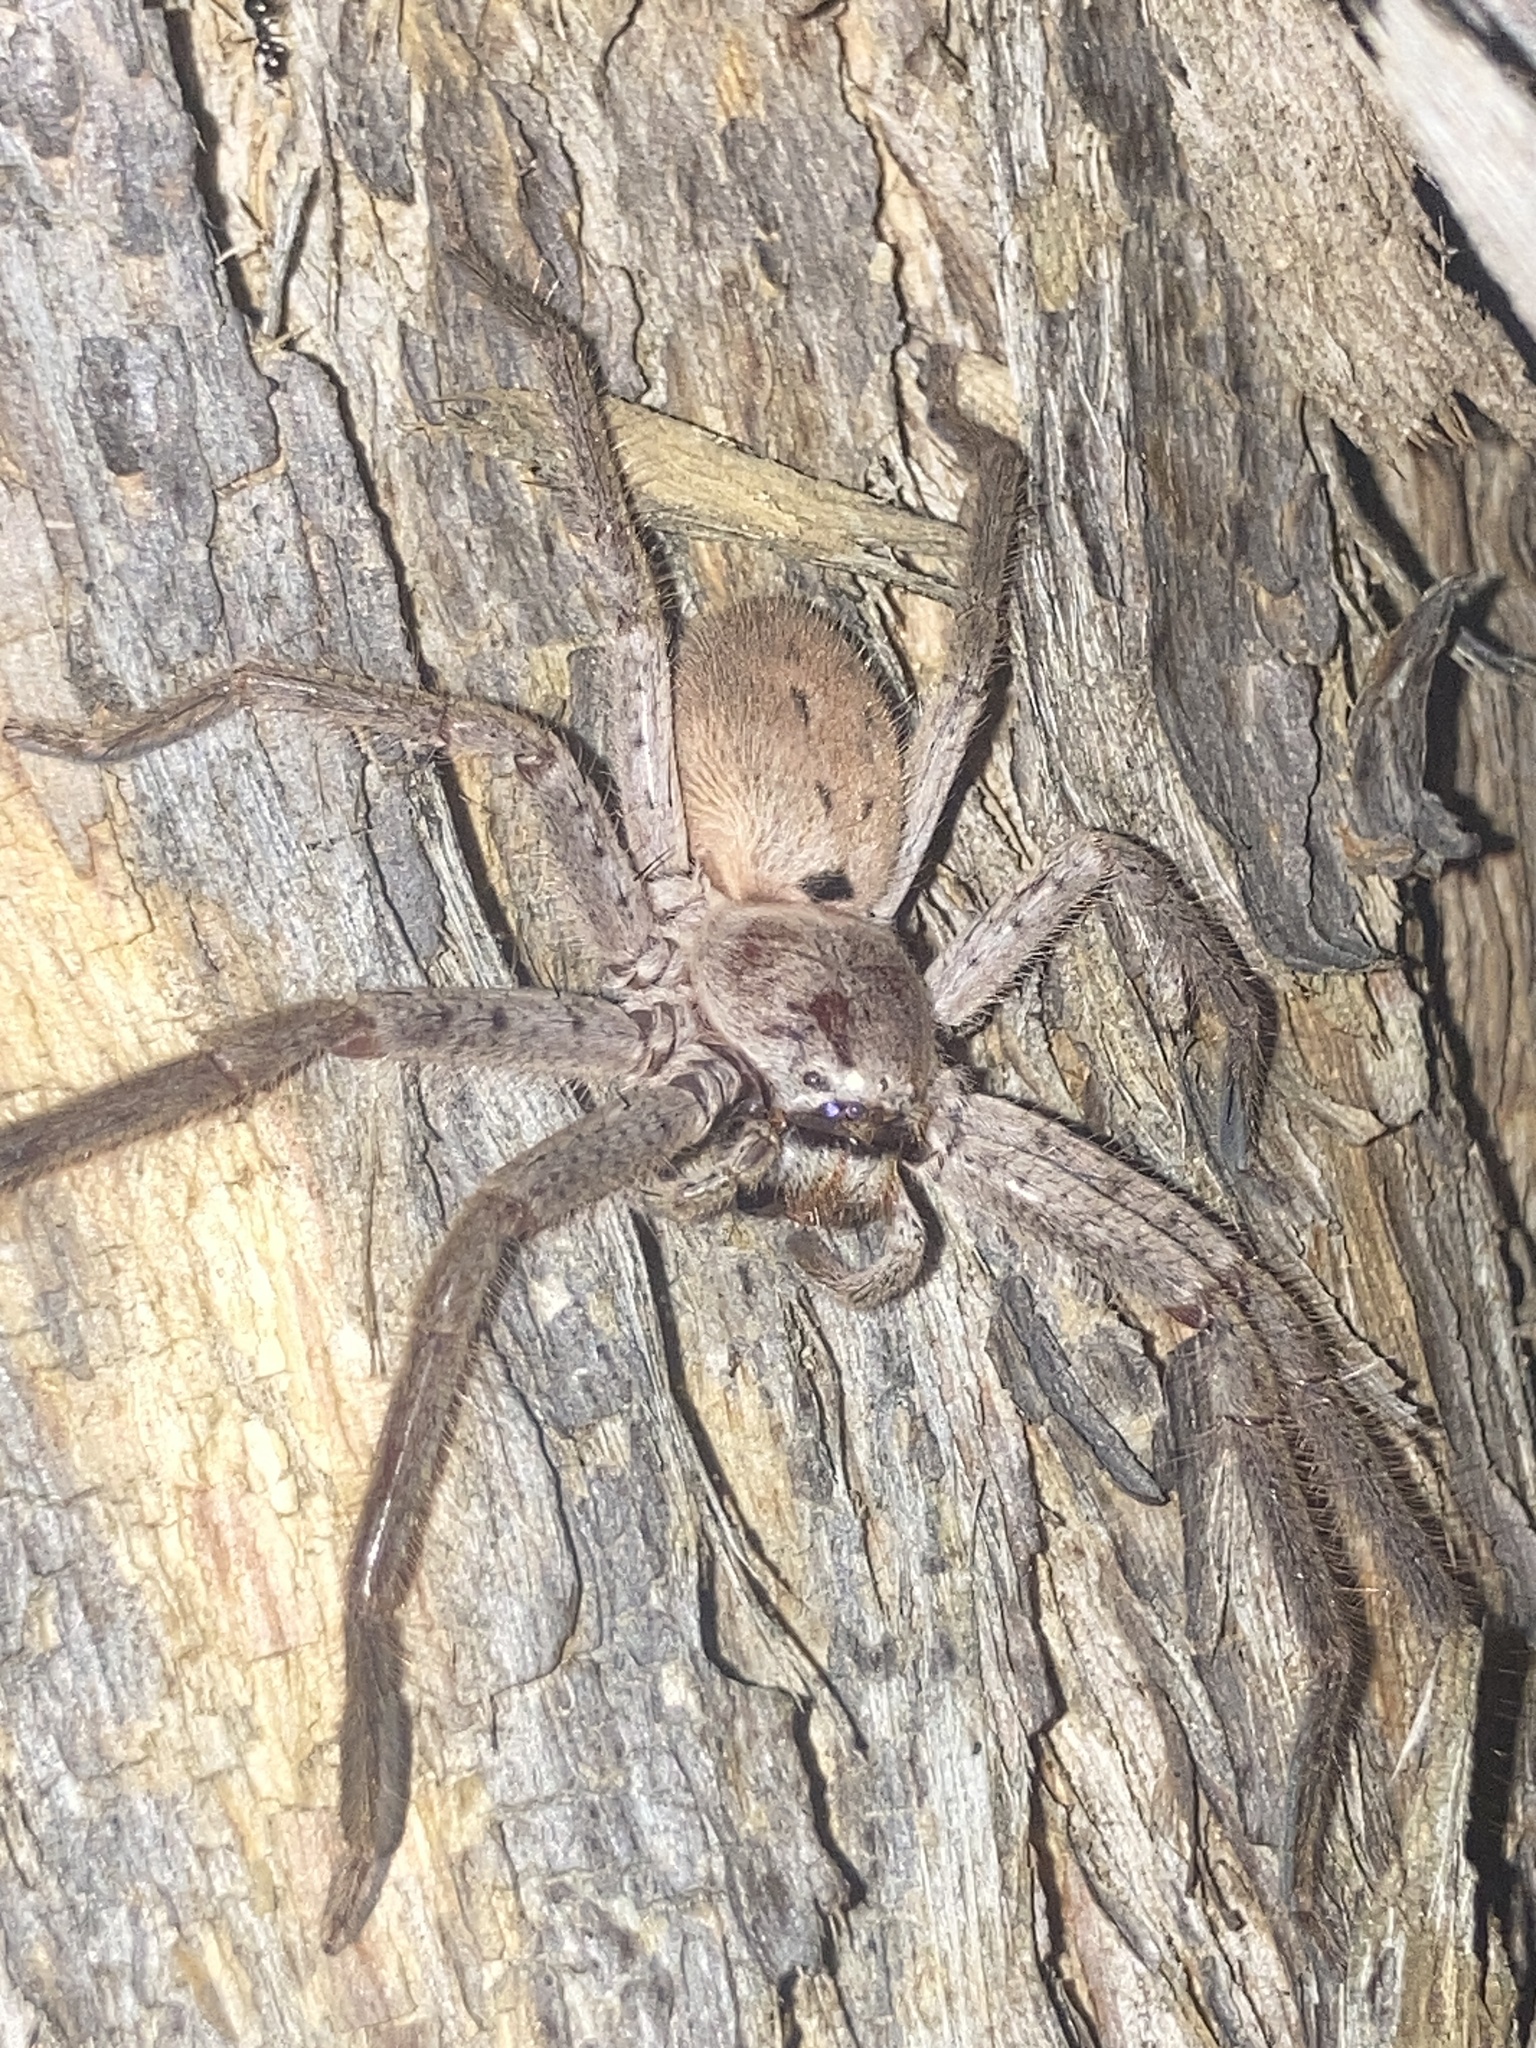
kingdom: Animalia
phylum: Arthropoda
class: Arachnida
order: Araneae
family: Sparassidae
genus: Isopeda
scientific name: Isopeda villosa
